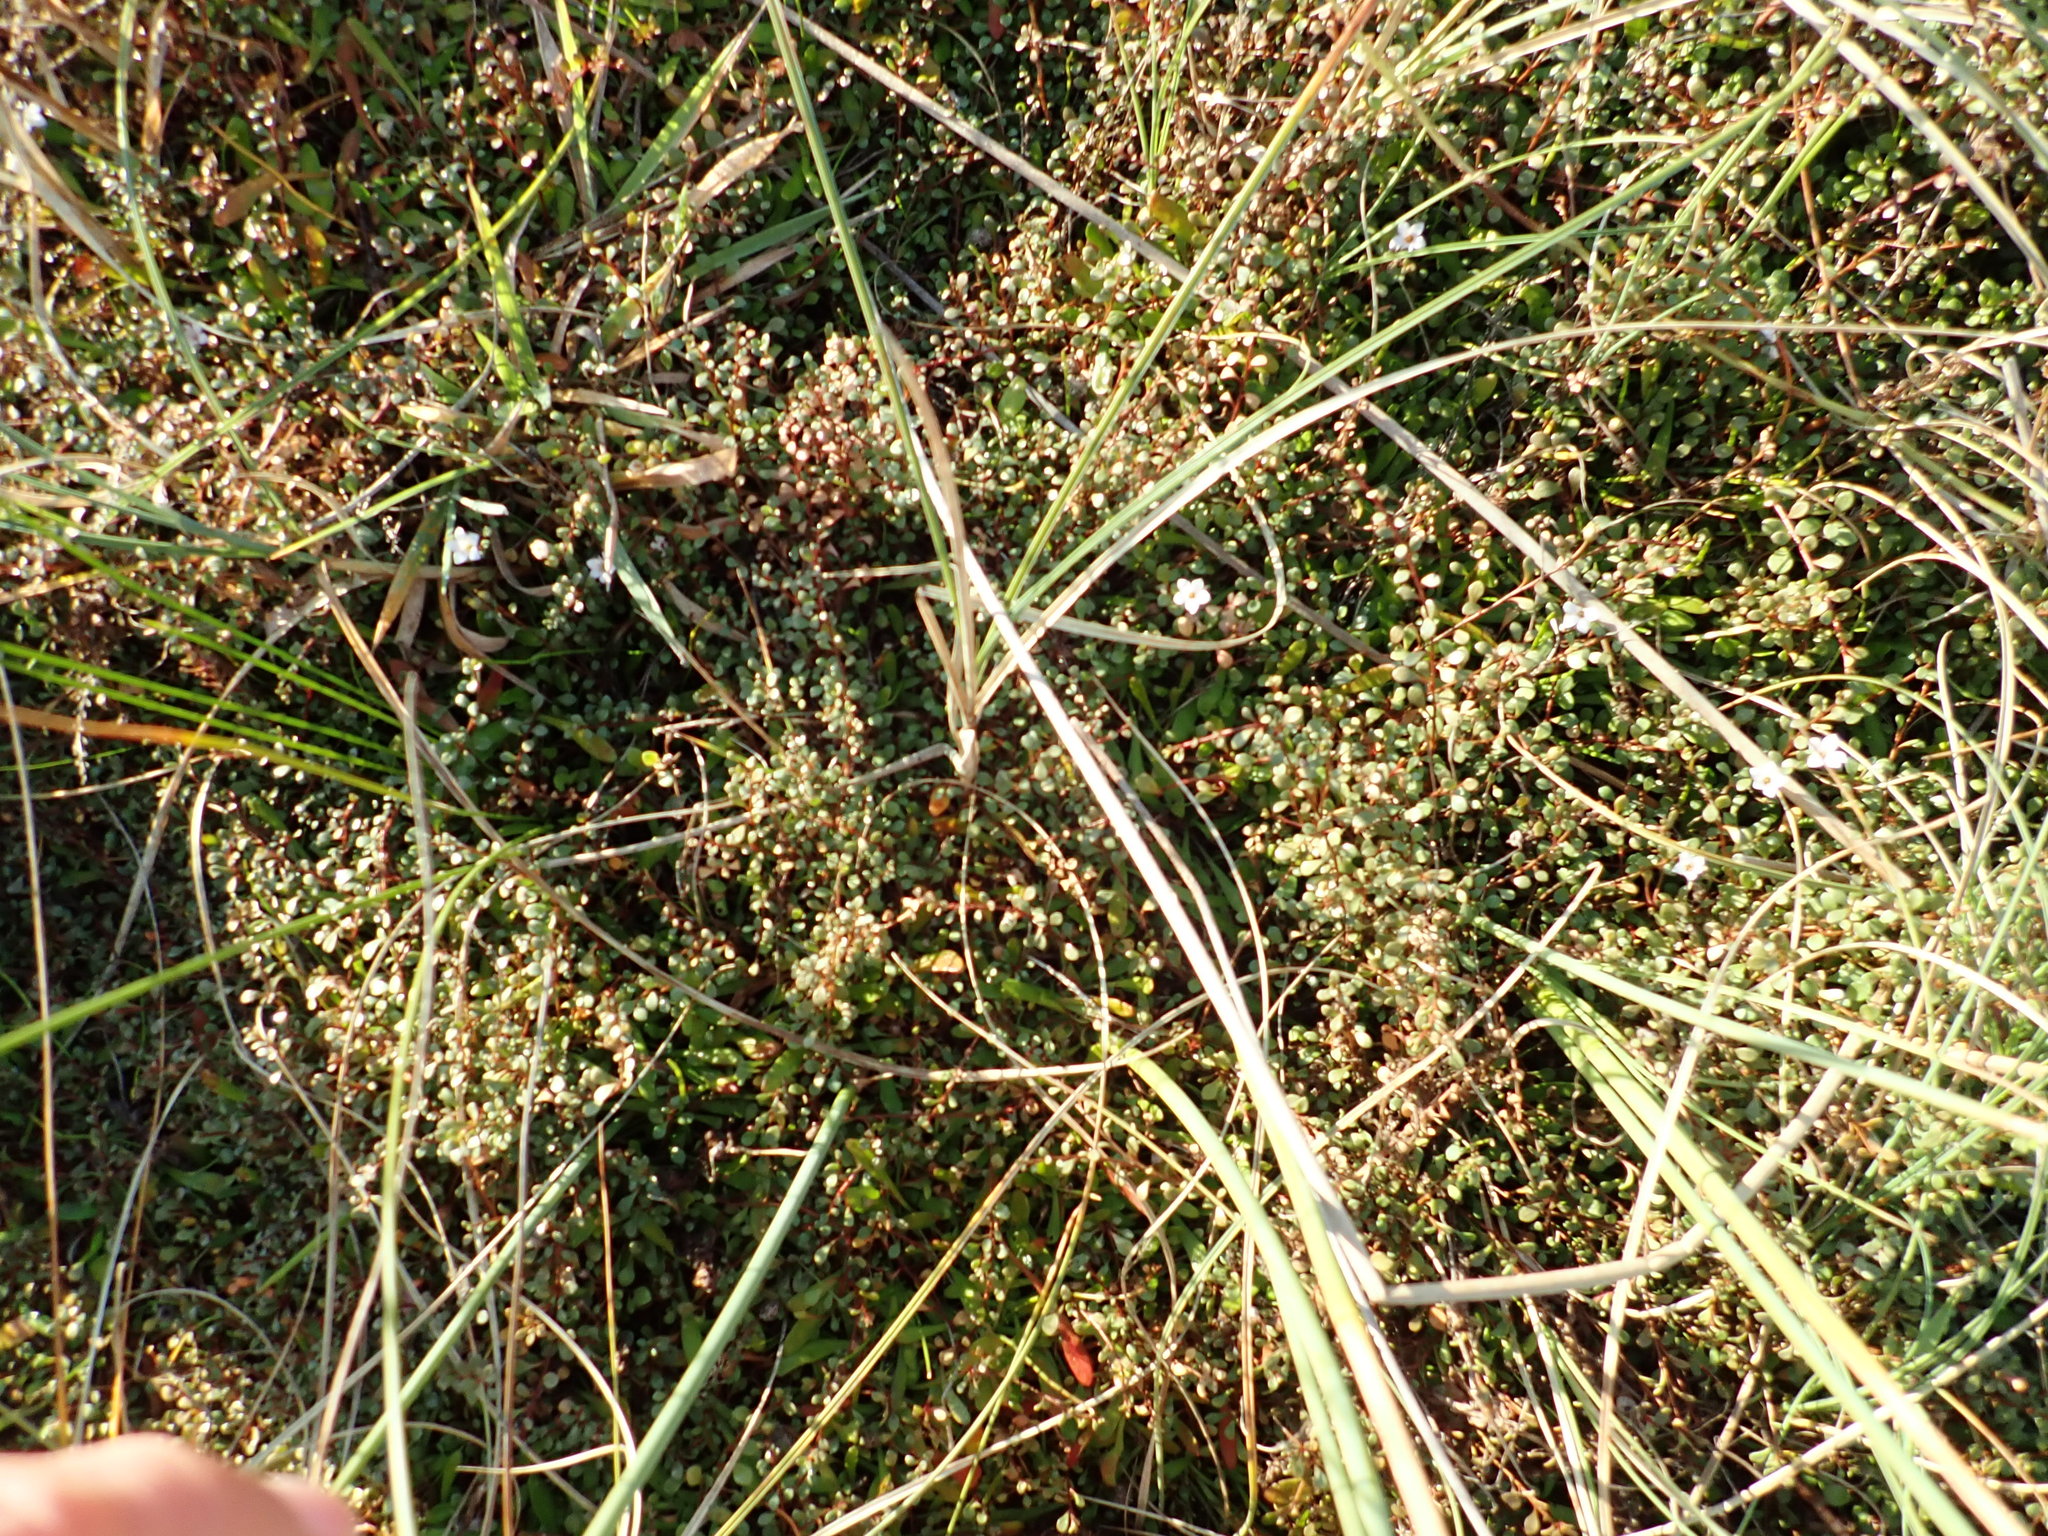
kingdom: Plantae
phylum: Tracheophyta
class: Magnoliopsida
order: Ericales
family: Primulaceae
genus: Samolus
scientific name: Samolus repens
